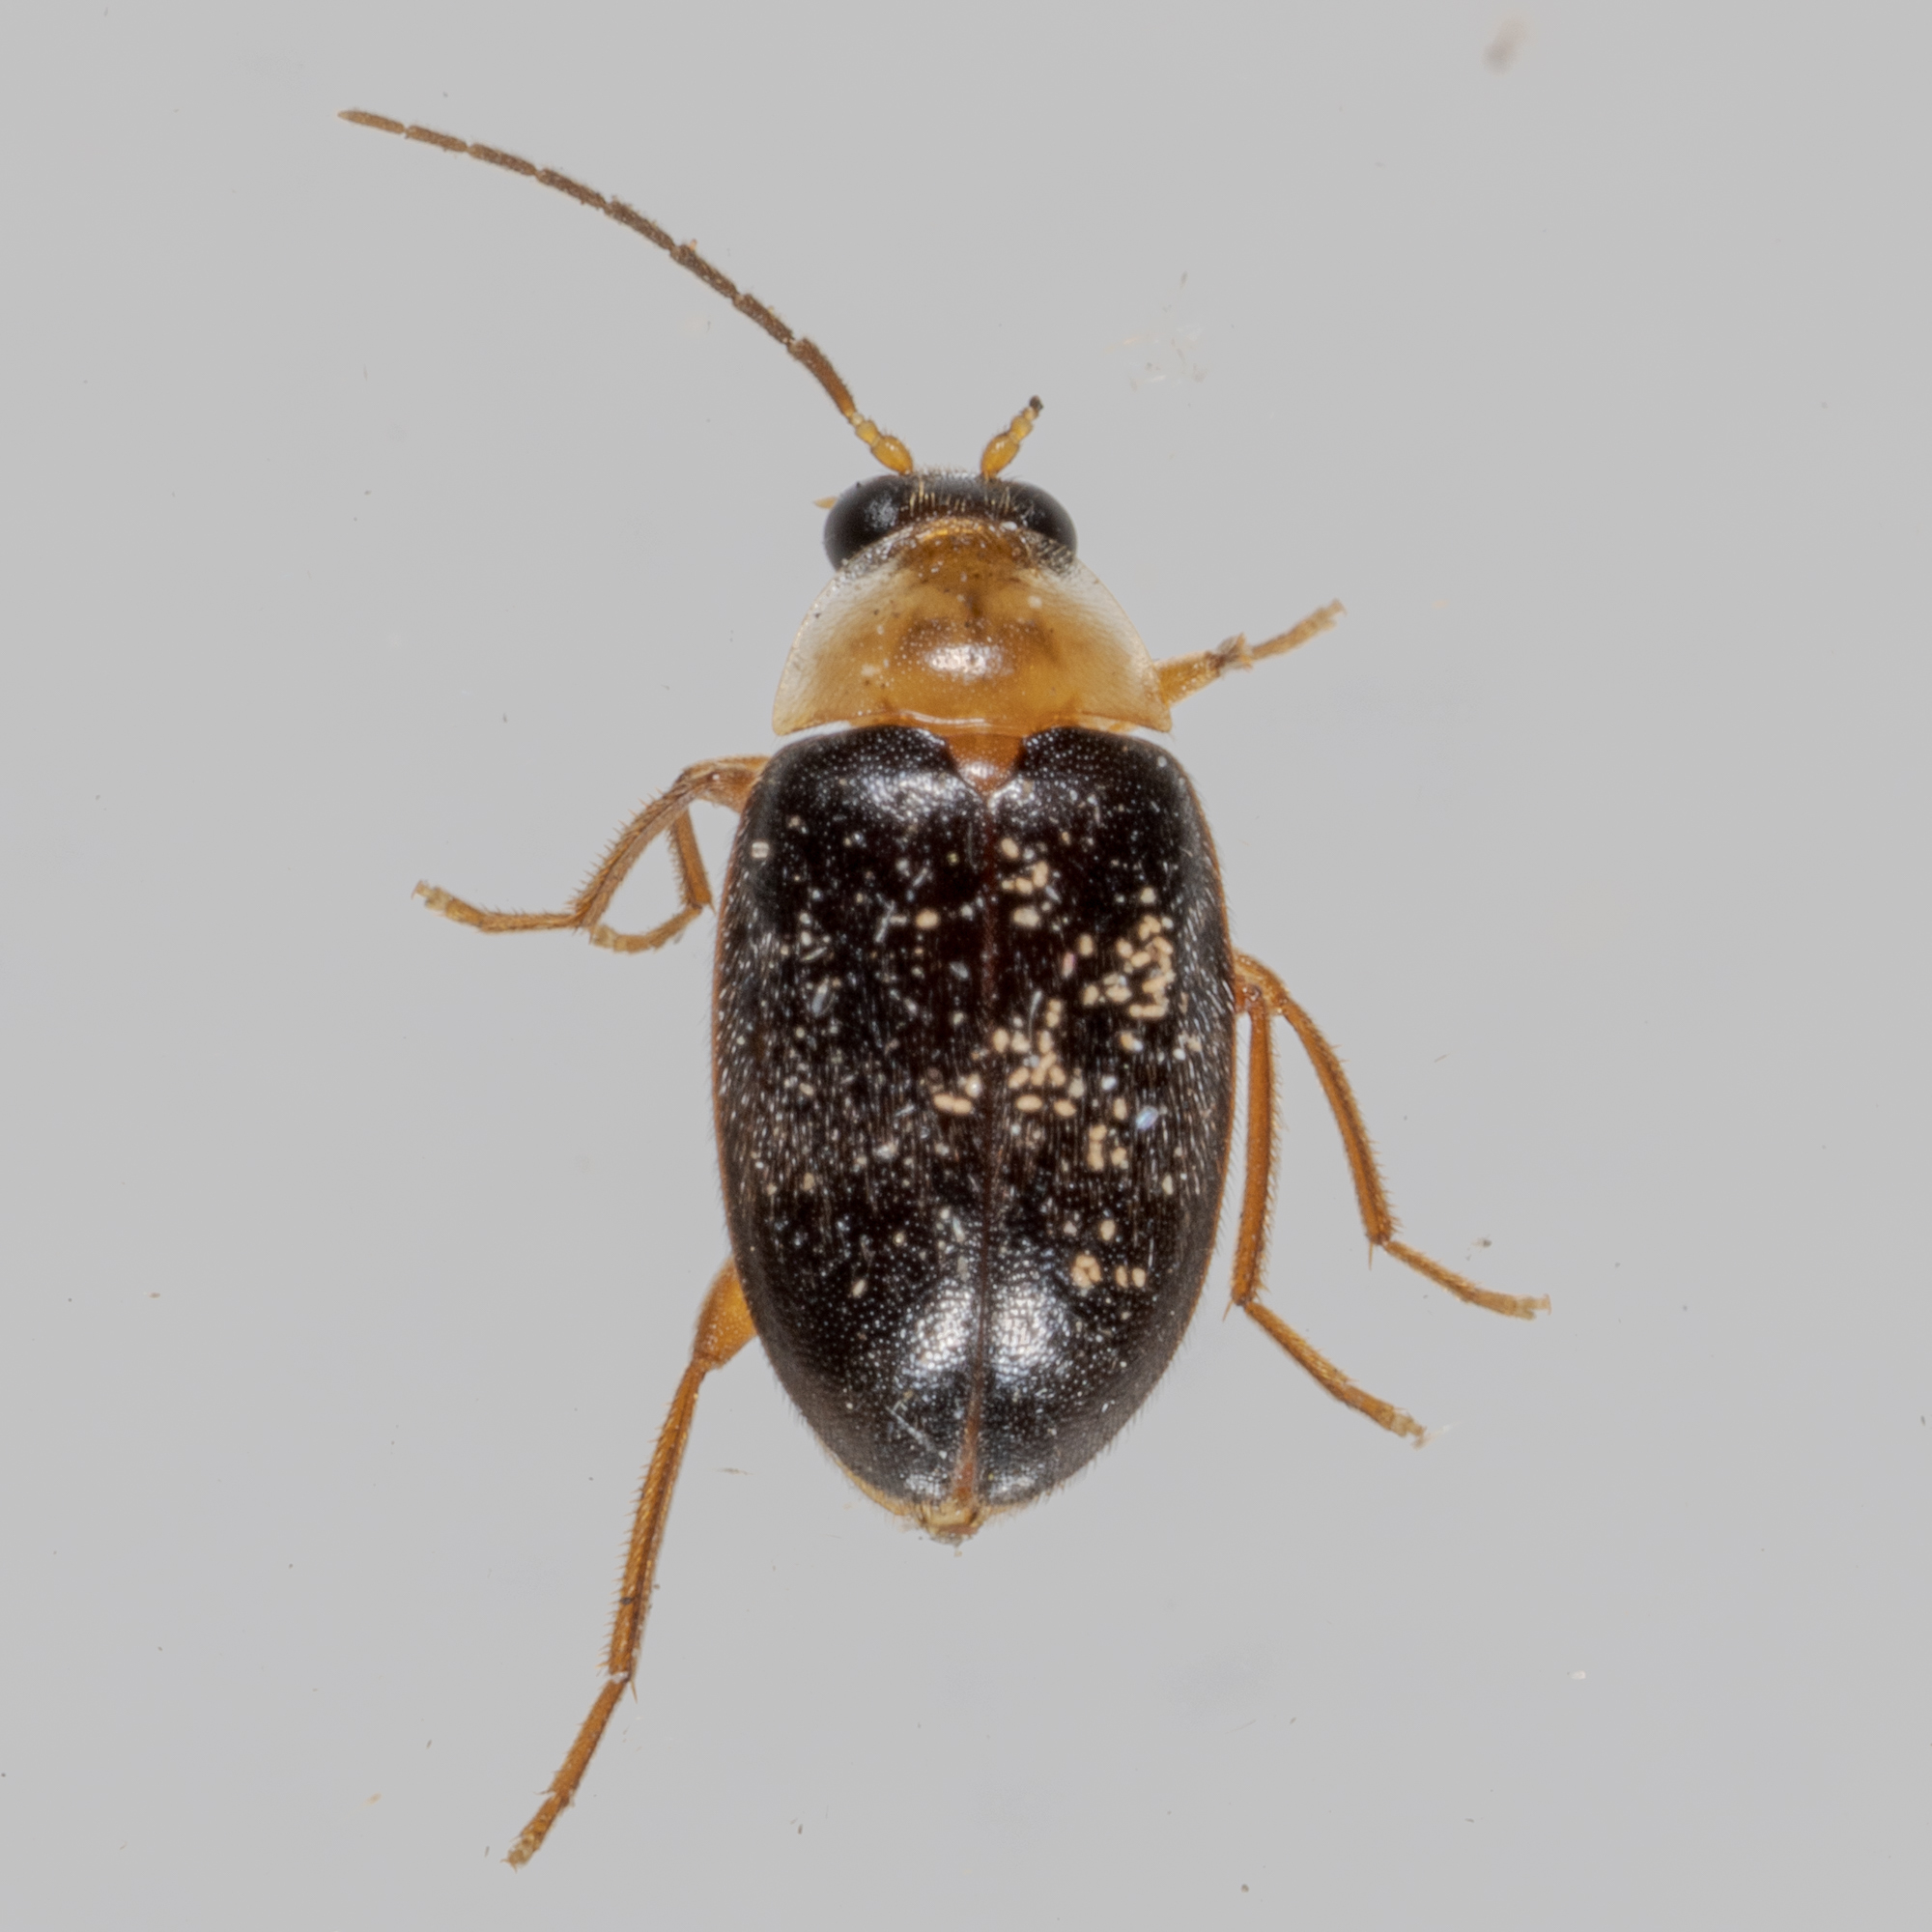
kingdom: Animalia
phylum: Arthropoda
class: Insecta
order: Coleoptera
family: Scirtidae
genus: Sacodes
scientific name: Sacodes pulchella
